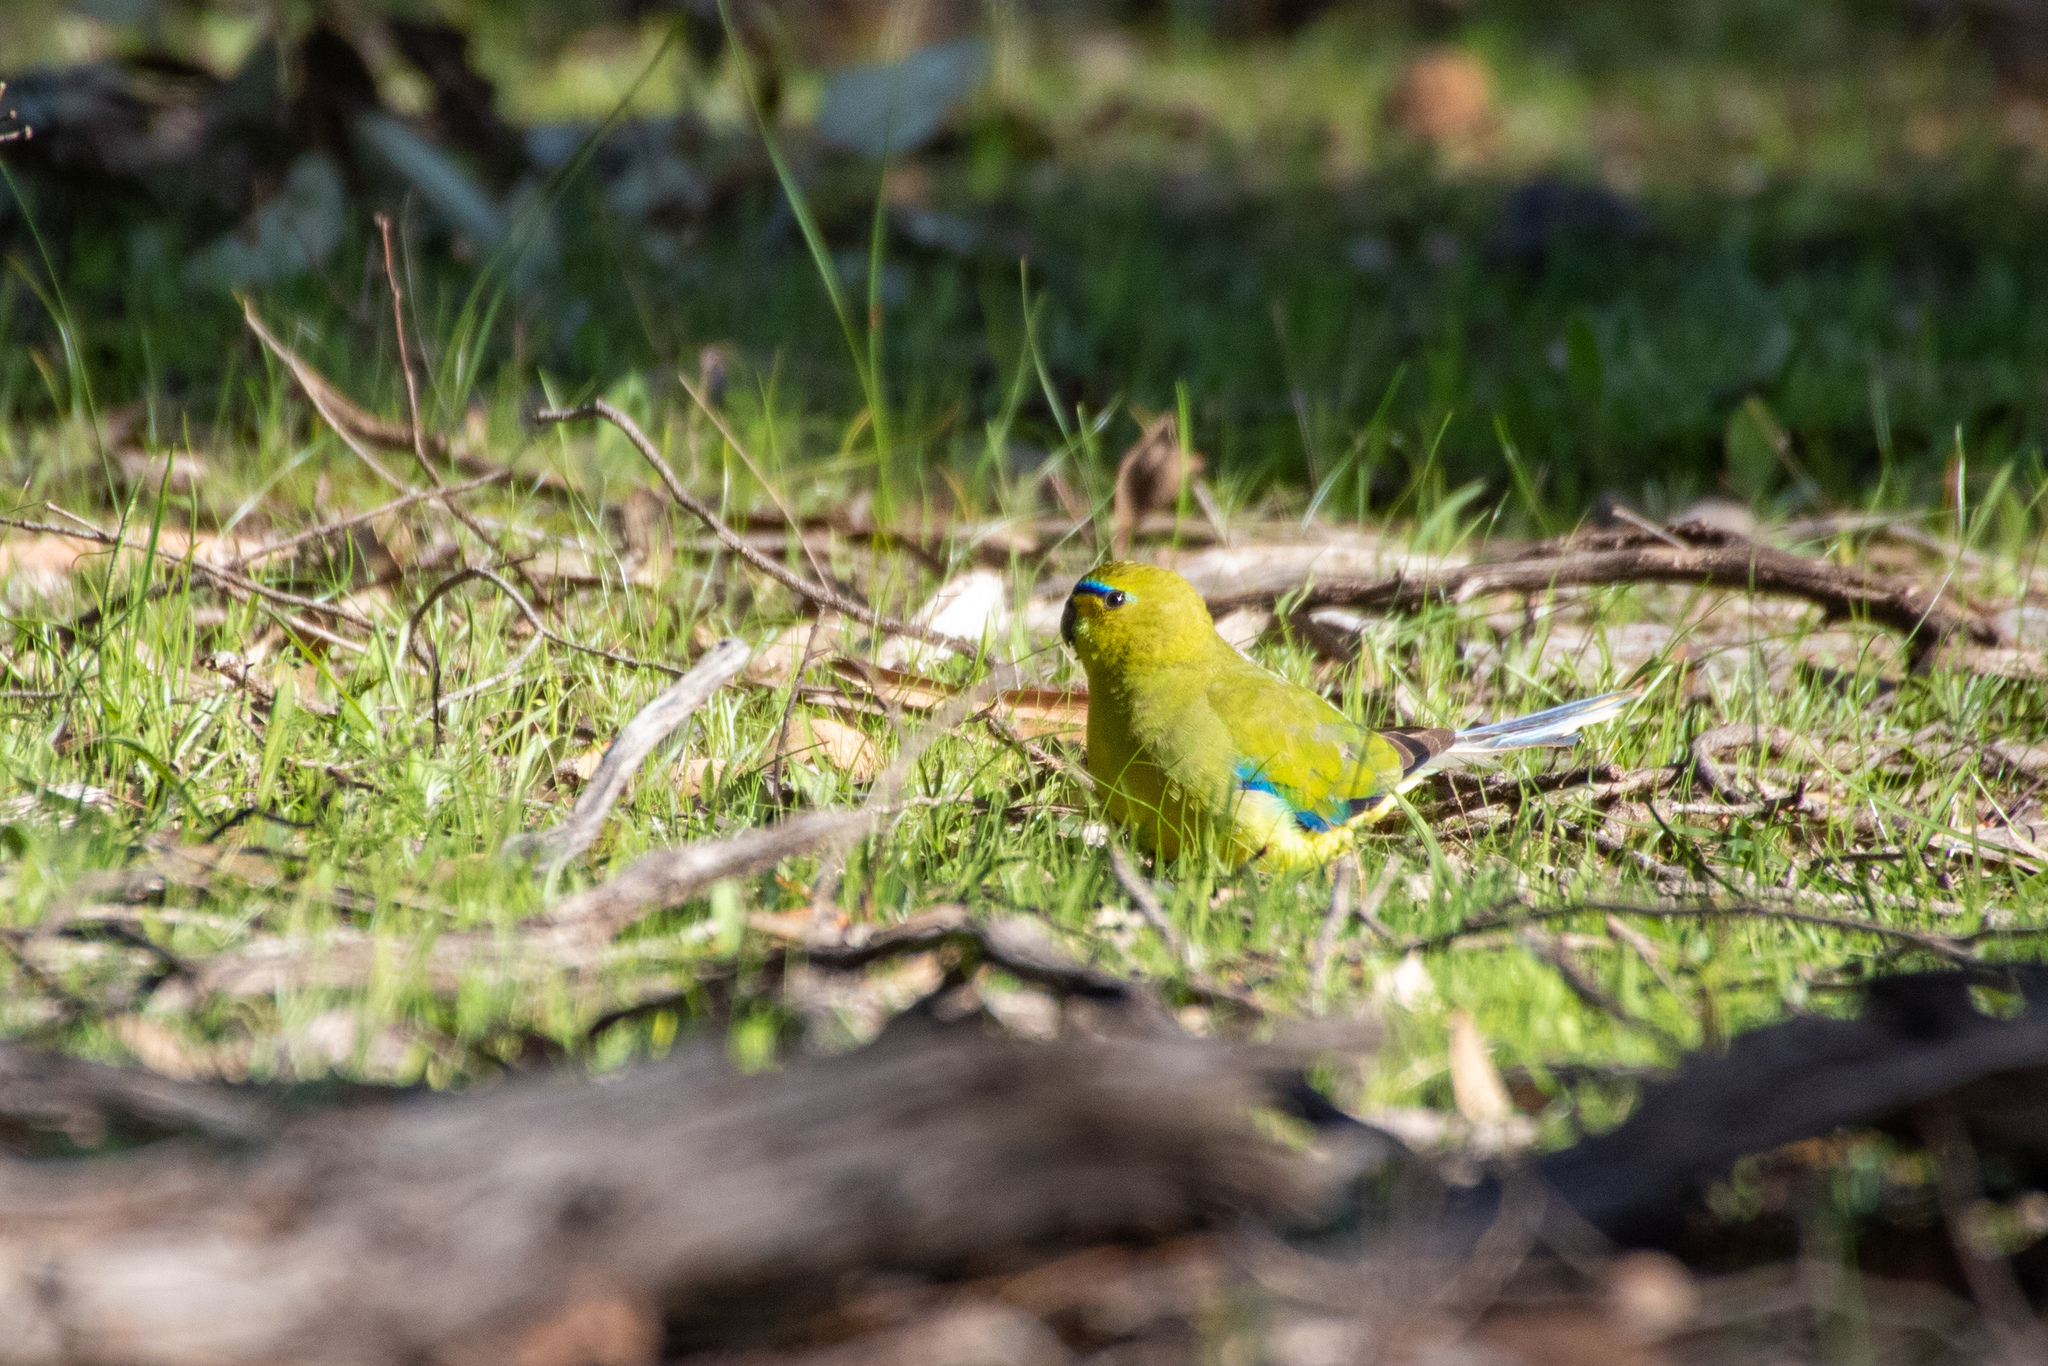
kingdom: Animalia
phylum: Chordata
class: Aves
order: Psittaciformes
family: Psittacidae
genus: Neophema
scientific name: Neophema elegans
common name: Elegant parrot
